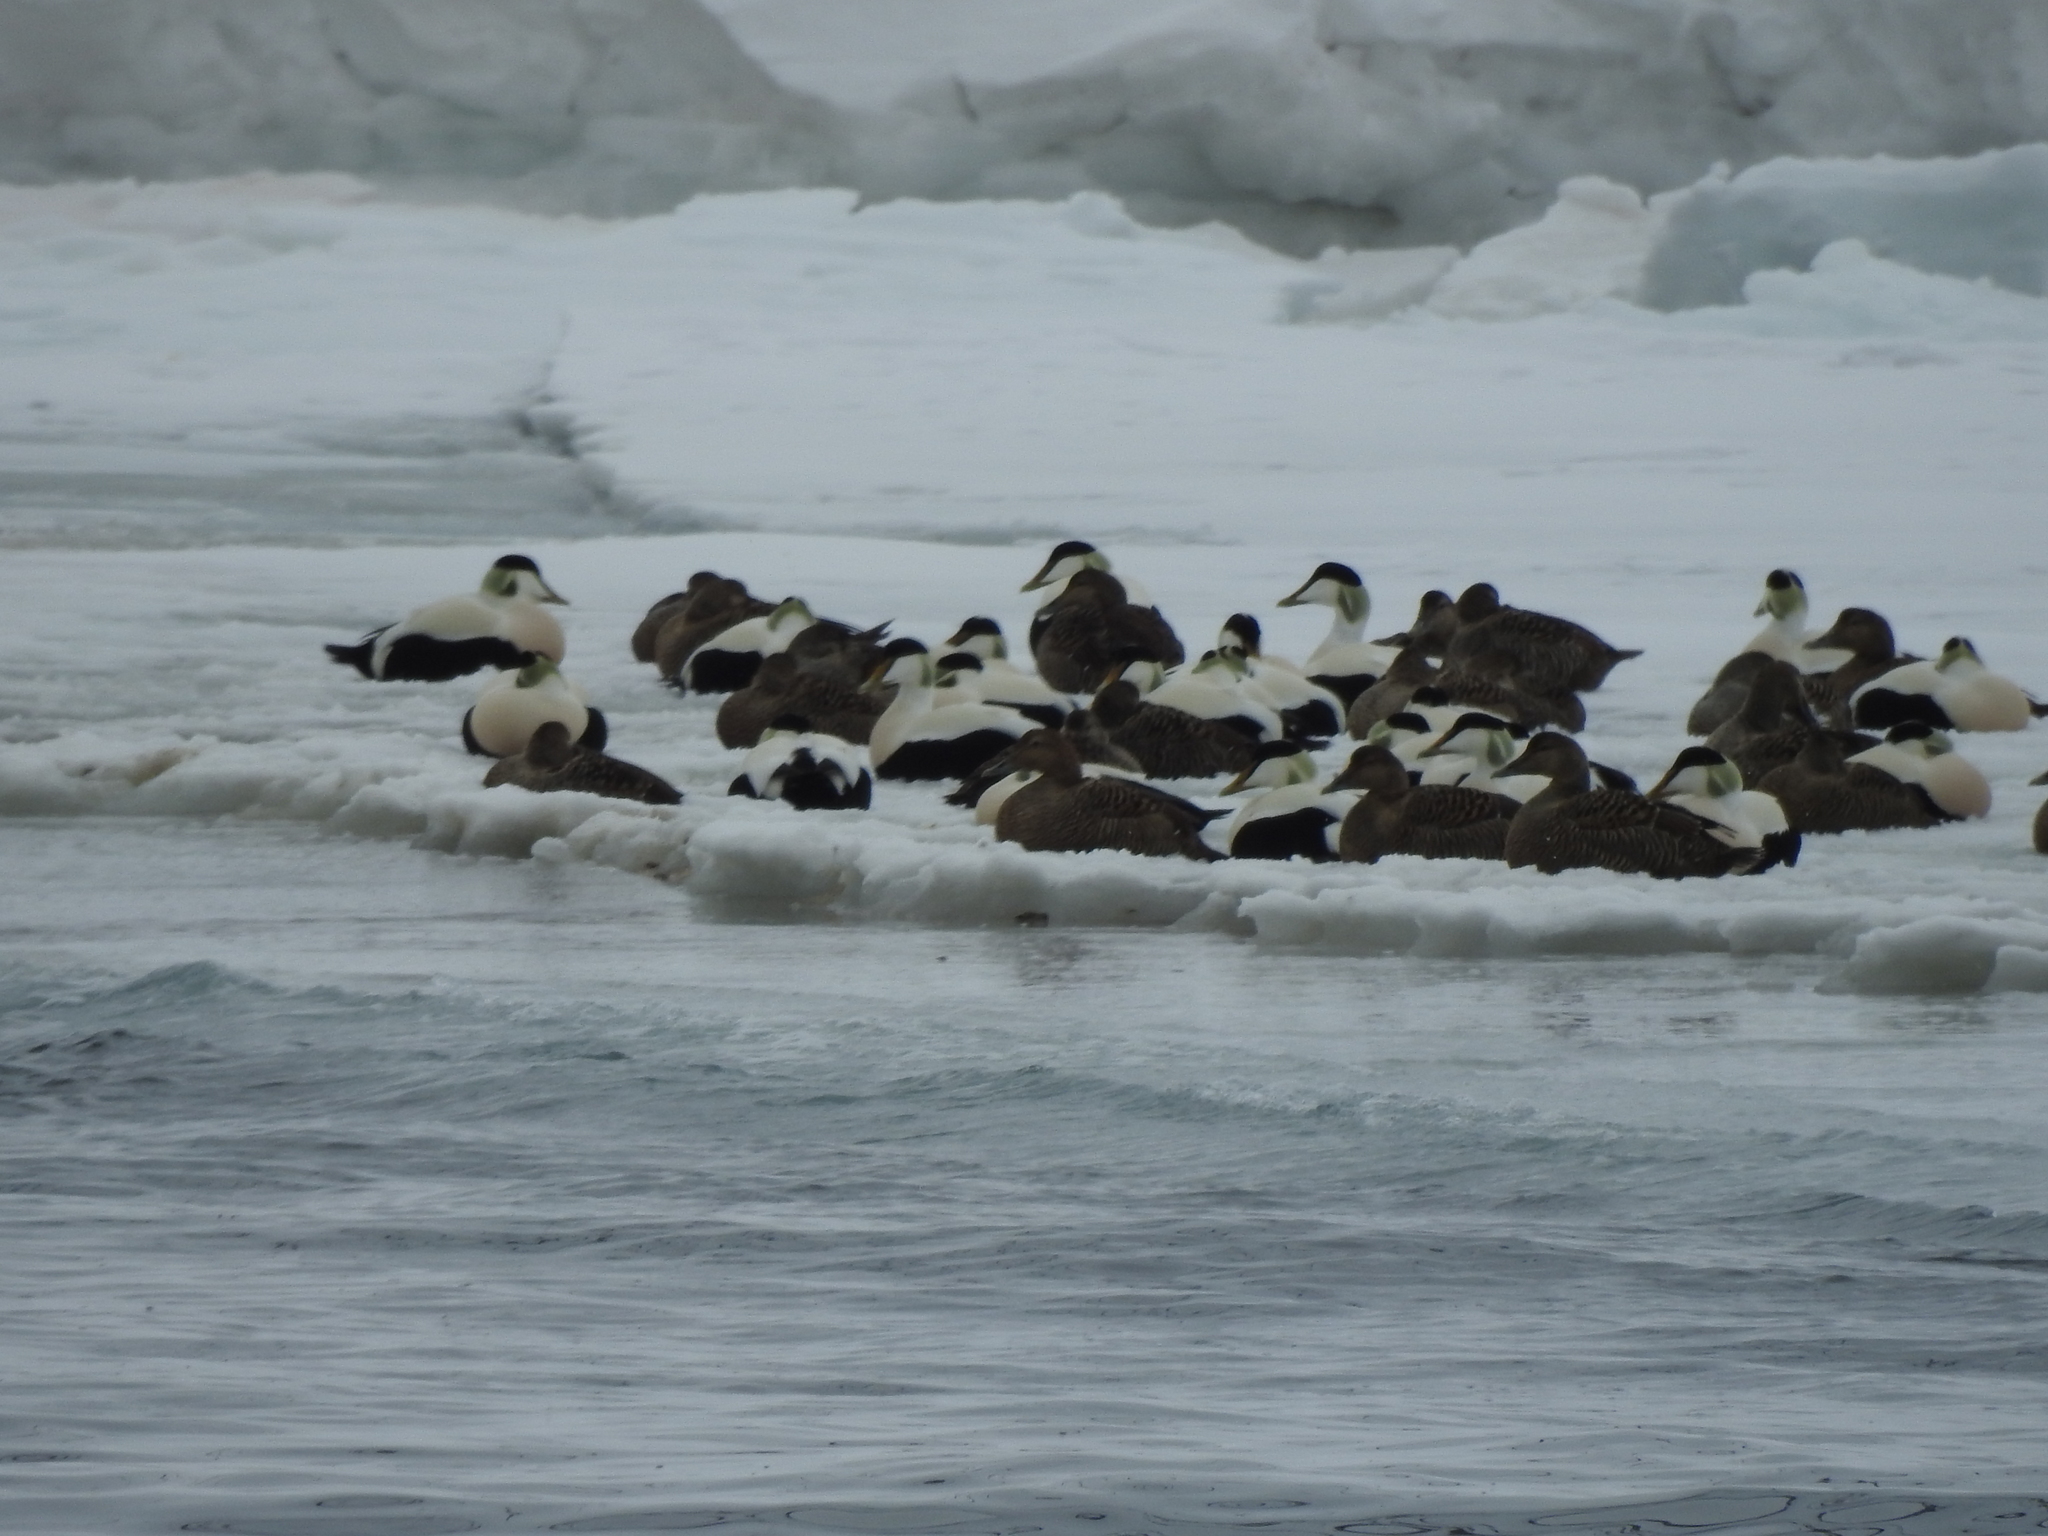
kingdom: Animalia
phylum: Chordata
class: Aves
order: Anseriformes
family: Anatidae
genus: Somateria
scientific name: Somateria mollissima
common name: Common eider
